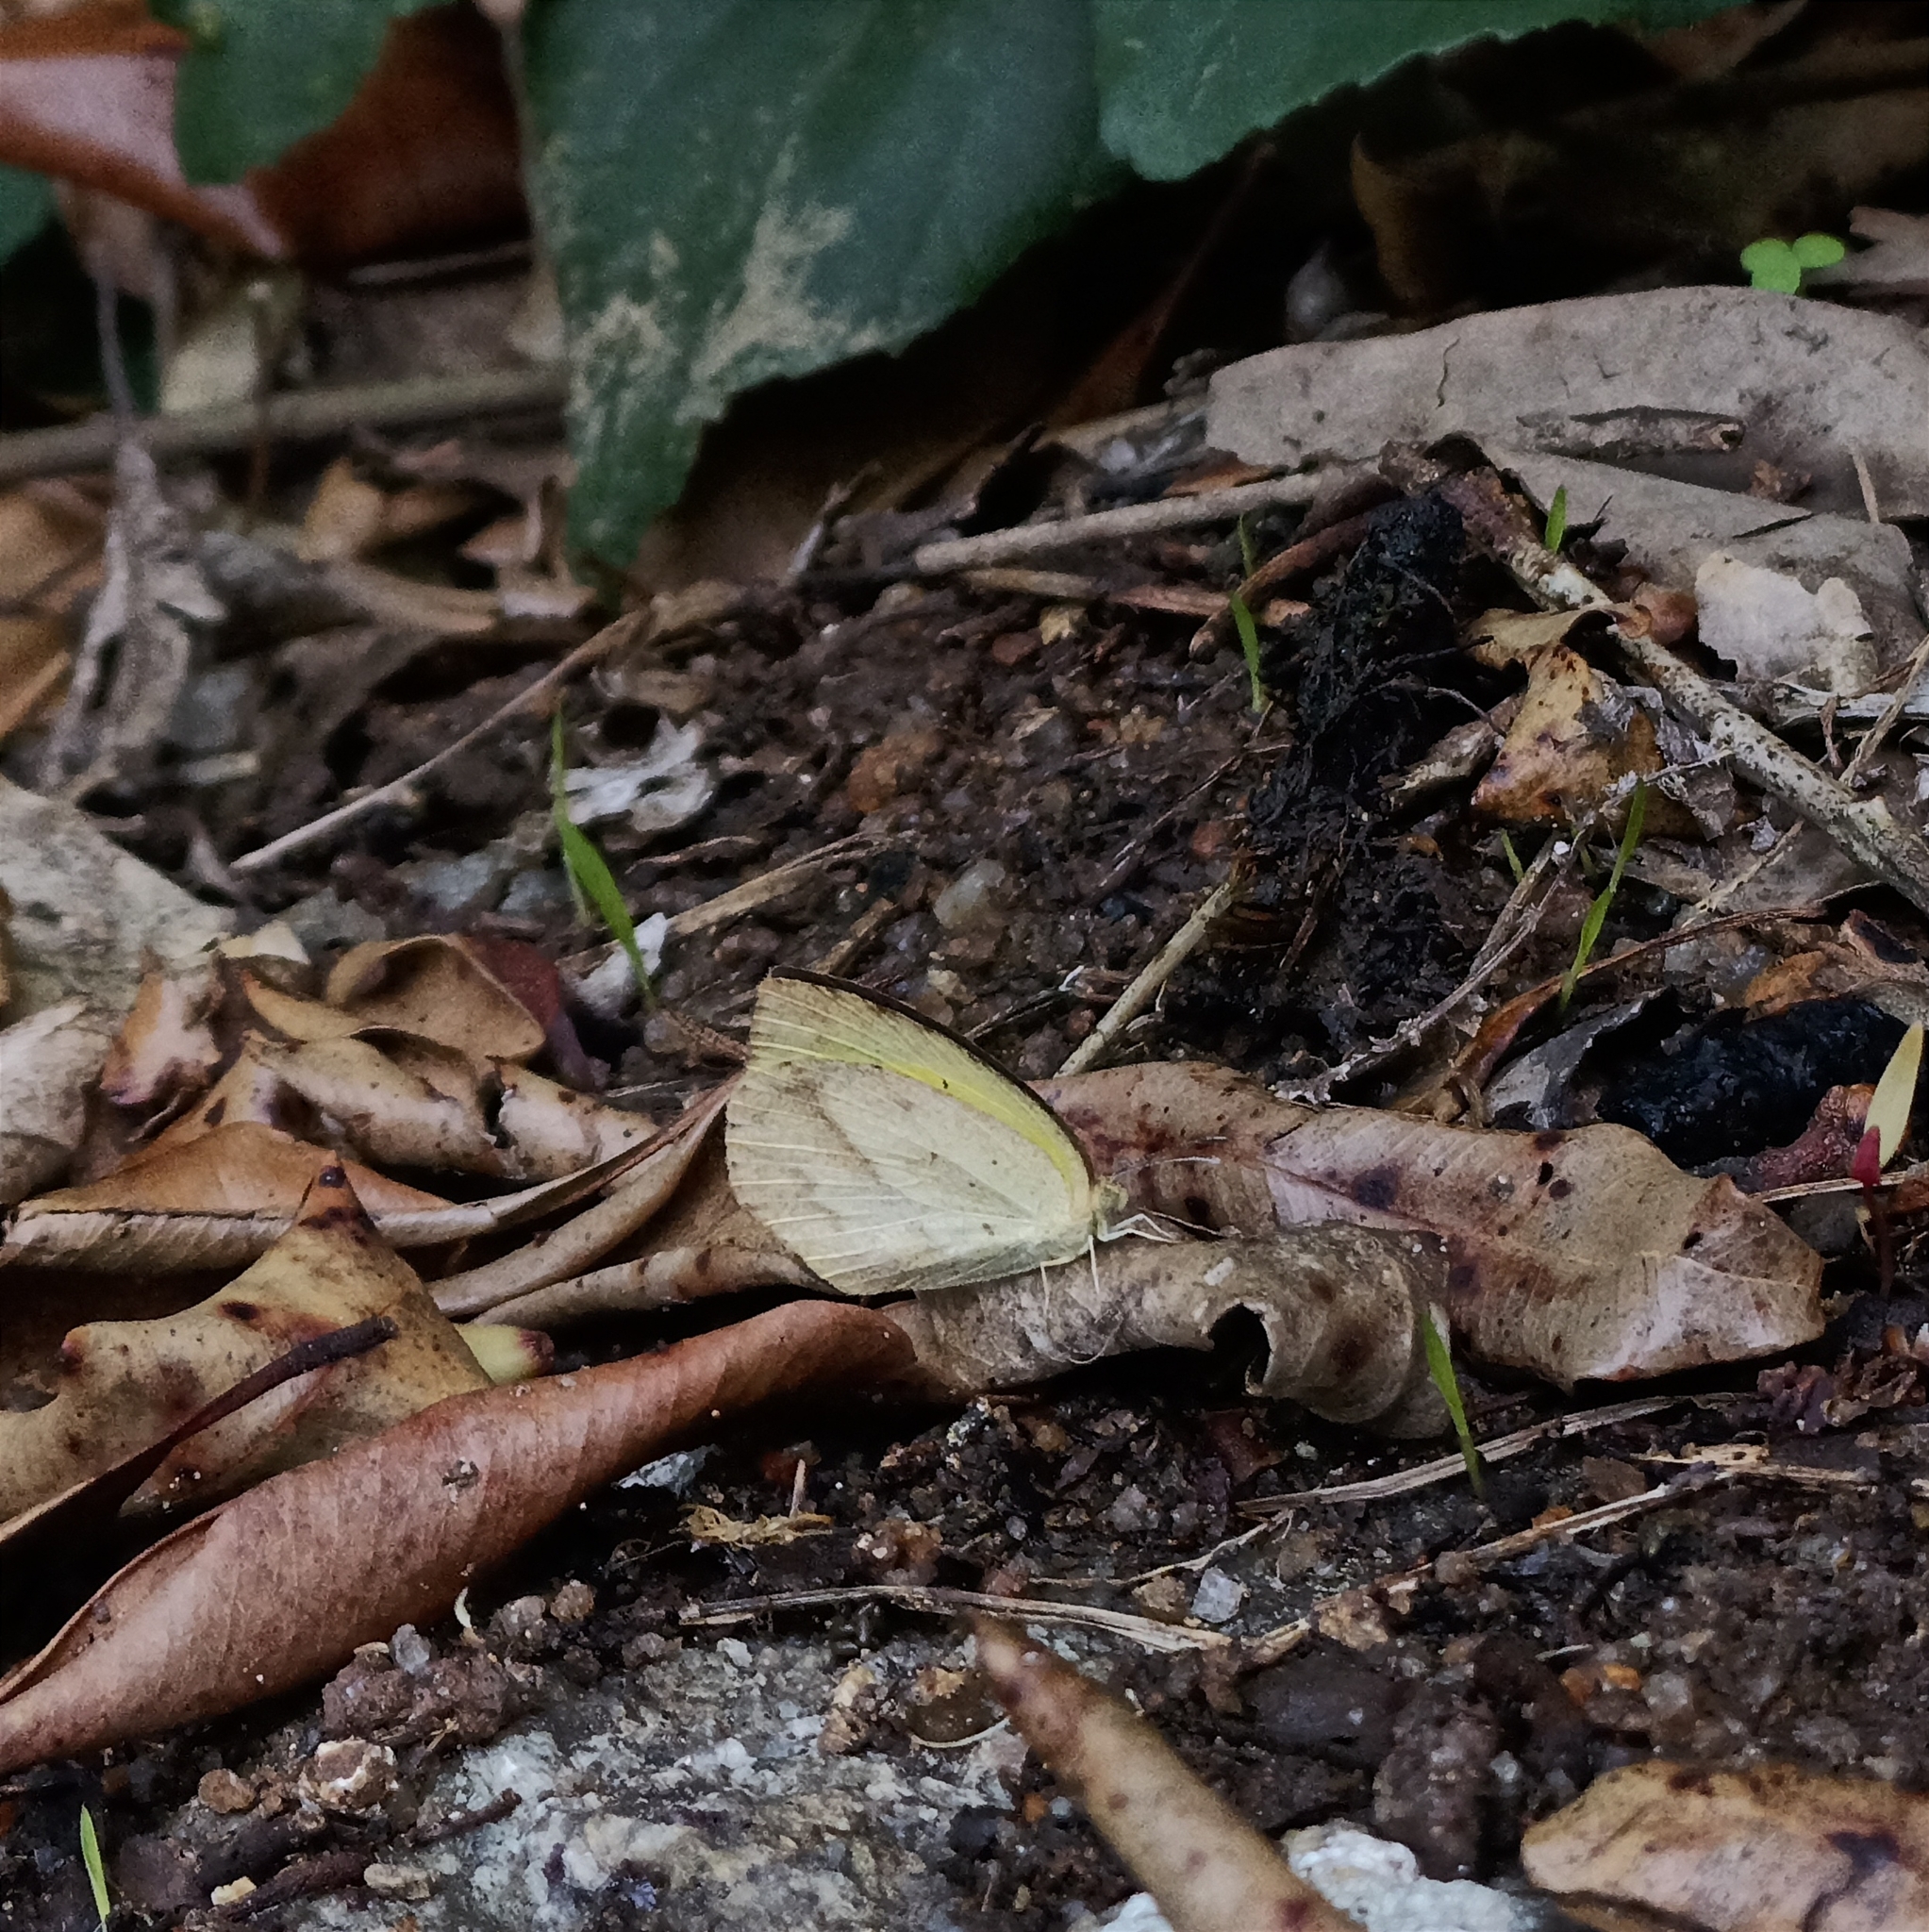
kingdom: Animalia
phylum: Arthropoda
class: Insecta
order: Lepidoptera
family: Pieridae
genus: Eurema
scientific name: Eurema laeta
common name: Spotless grass yellow
